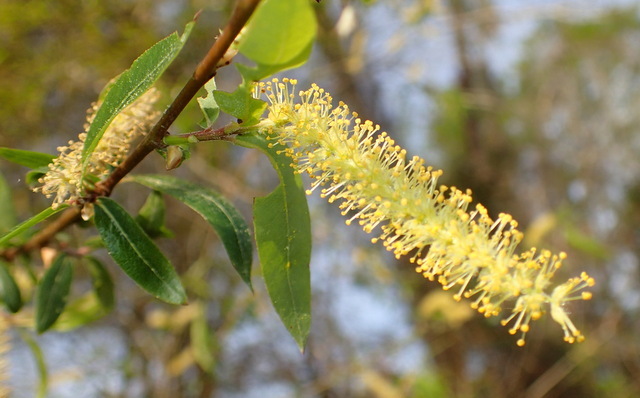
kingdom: Plantae
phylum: Tracheophyta
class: Magnoliopsida
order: Malpighiales
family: Salicaceae
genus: Salix
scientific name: Salix caroliniana
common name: Carolina willow
